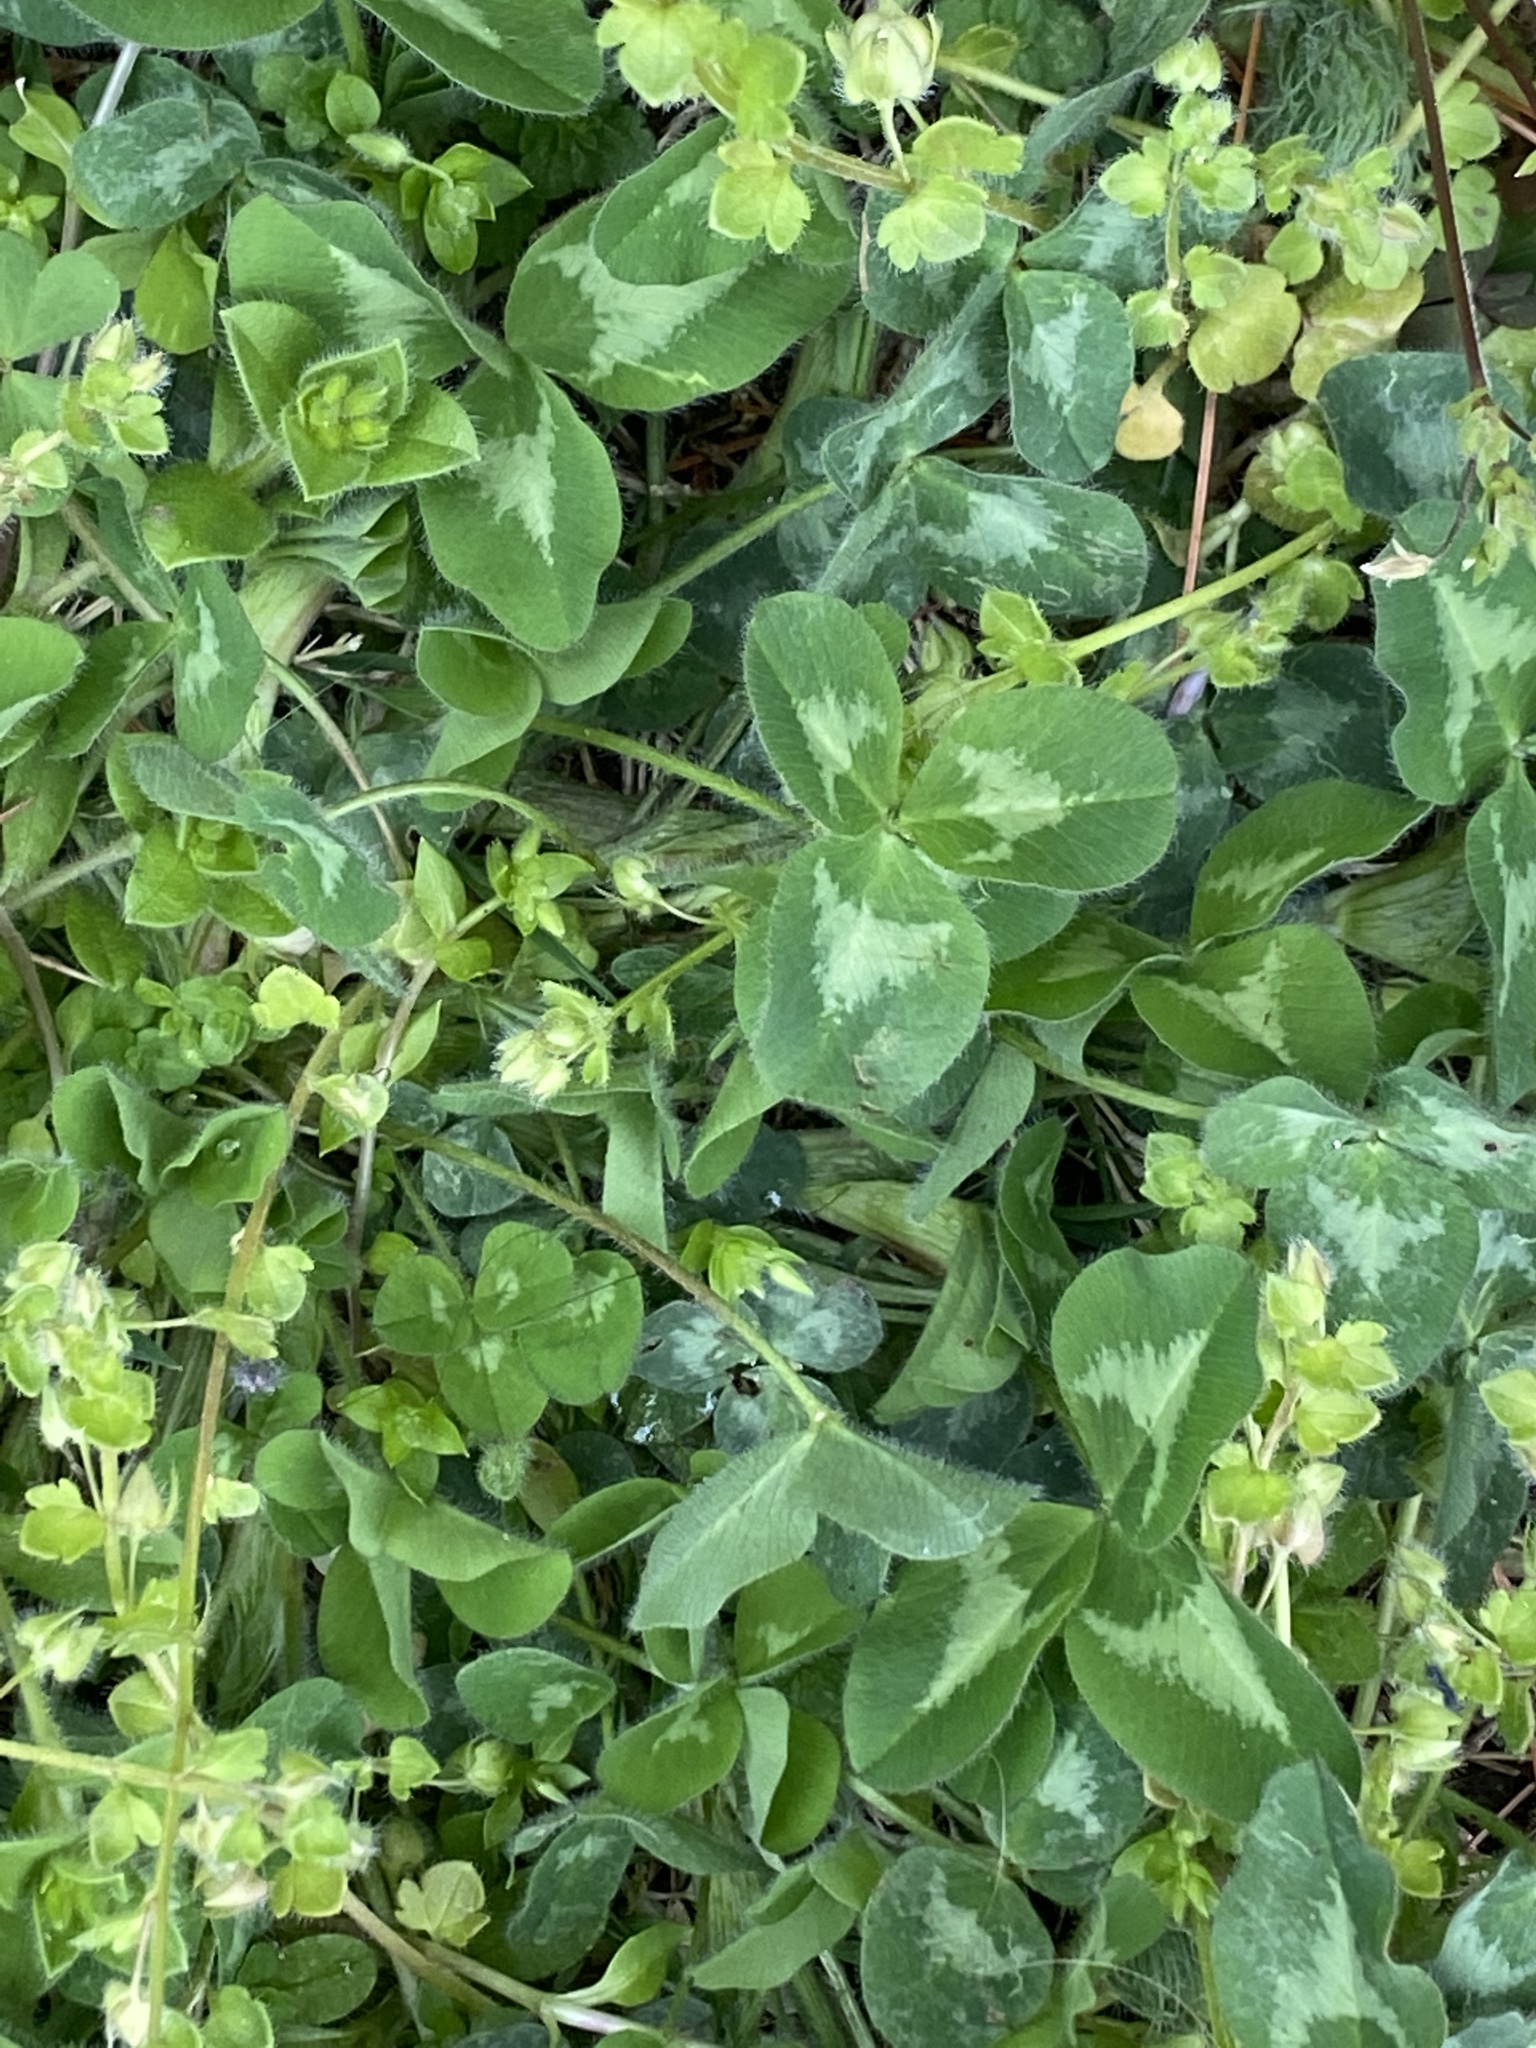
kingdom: Plantae
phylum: Tracheophyta
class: Magnoliopsida
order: Fabales
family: Fabaceae
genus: Trifolium
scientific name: Trifolium pratense
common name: Red clover
